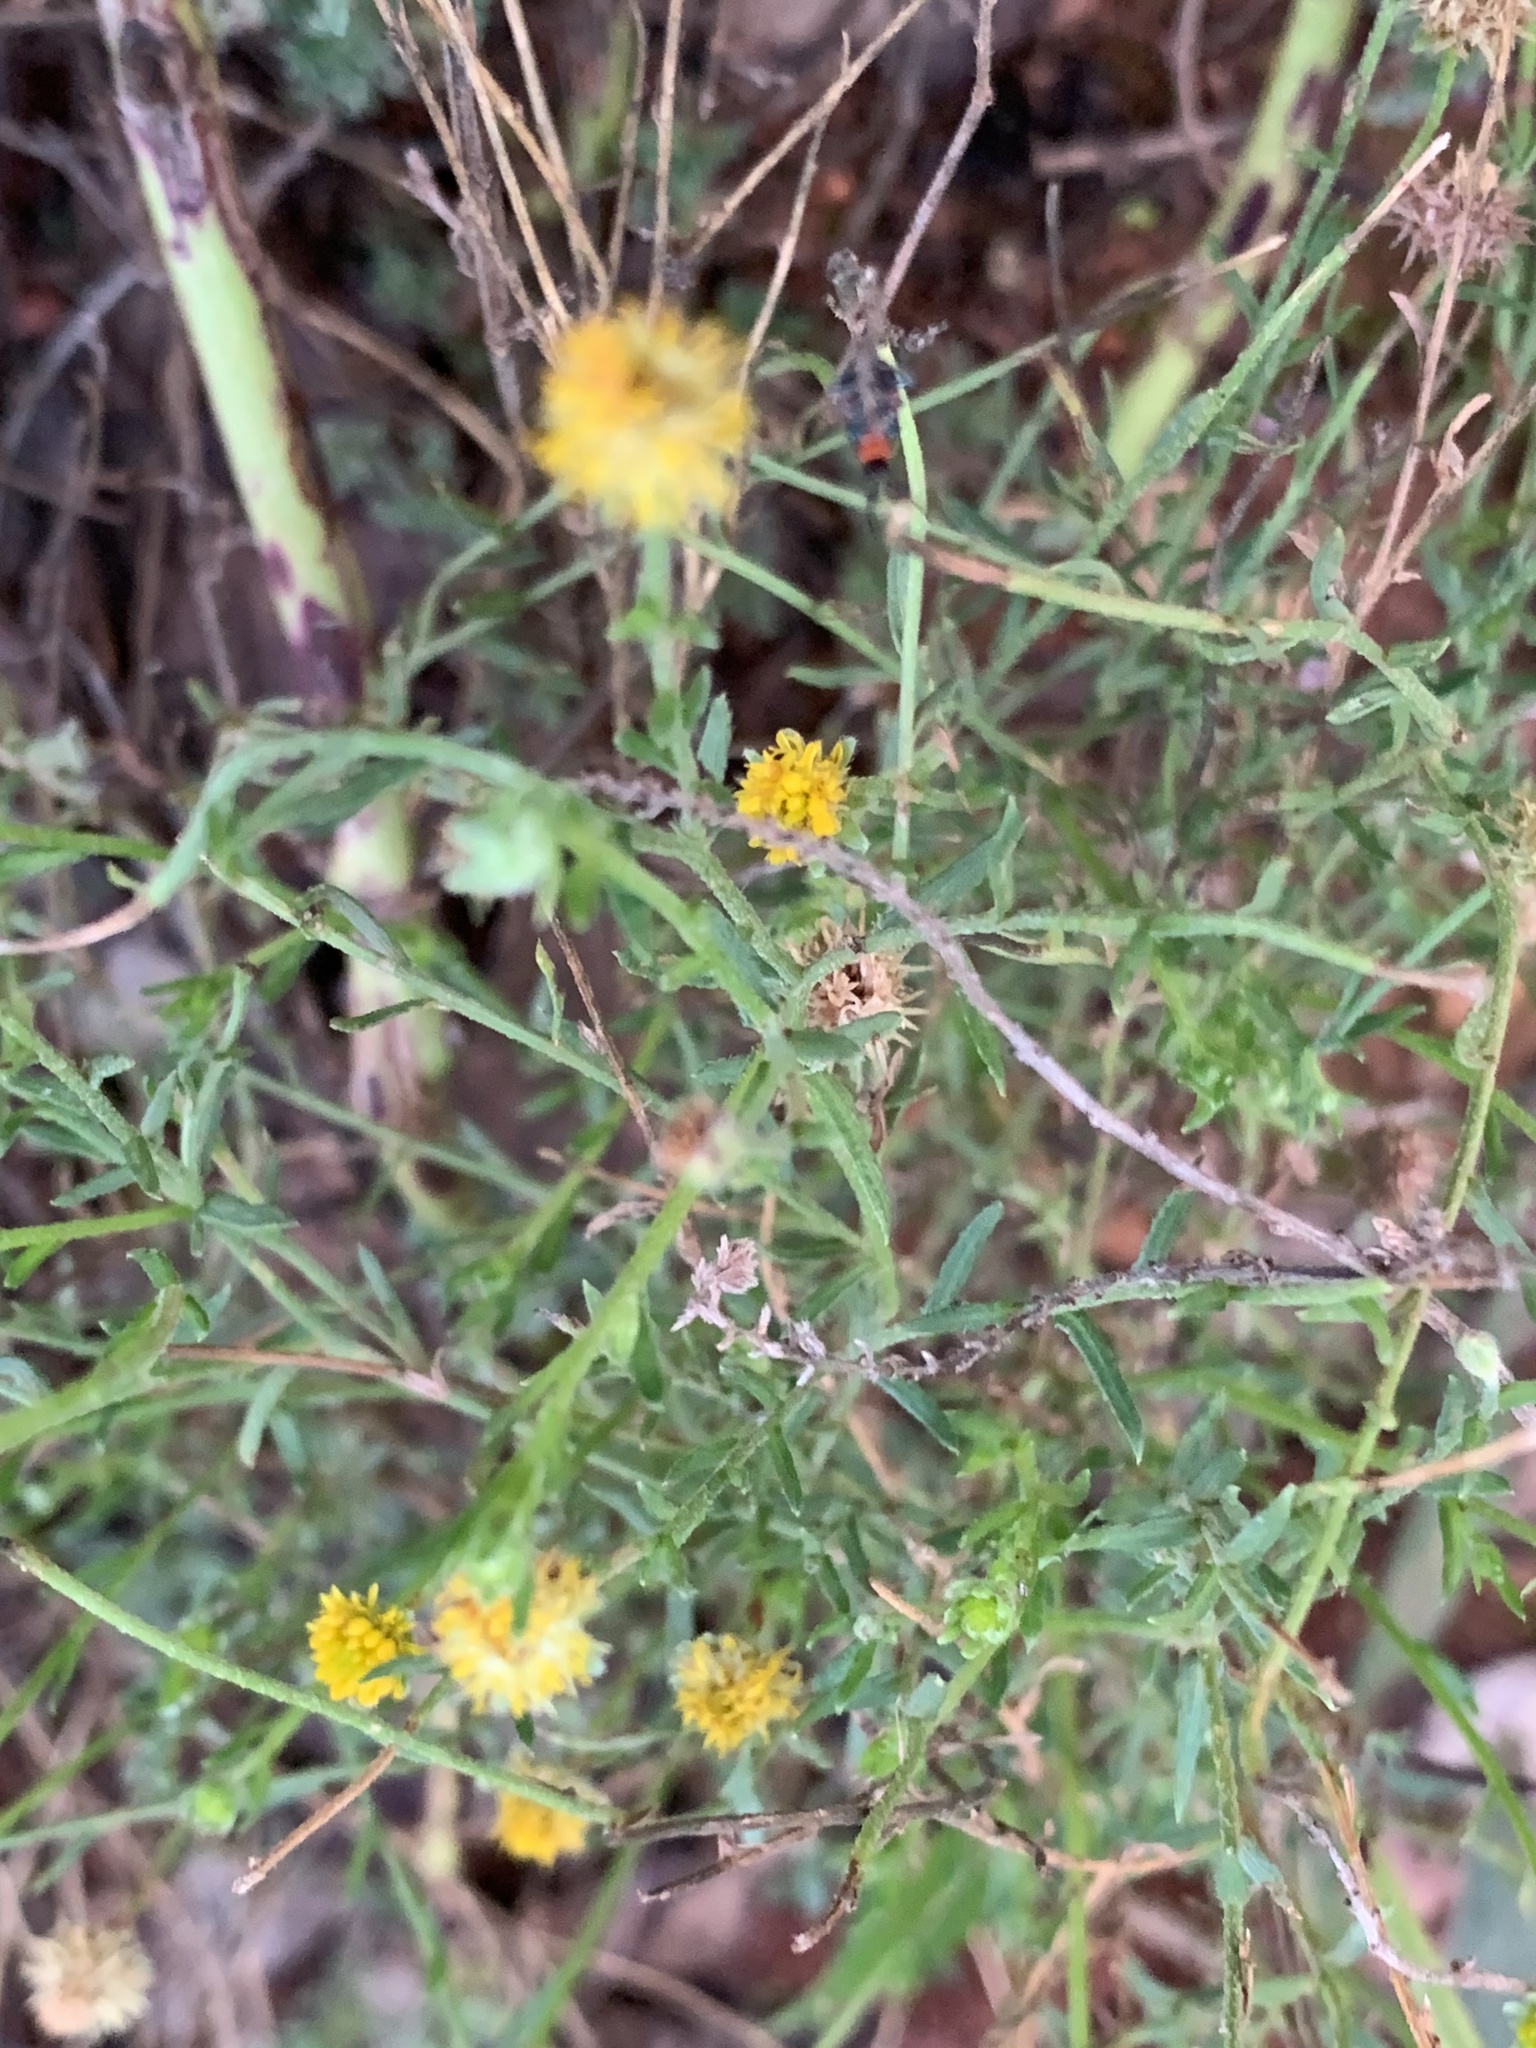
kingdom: Plantae
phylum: Tracheophyta
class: Magnoliopsida
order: Asterales
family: Asteraceae
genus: Calotis
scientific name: Calotis lappulacea
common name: Bur daisy
